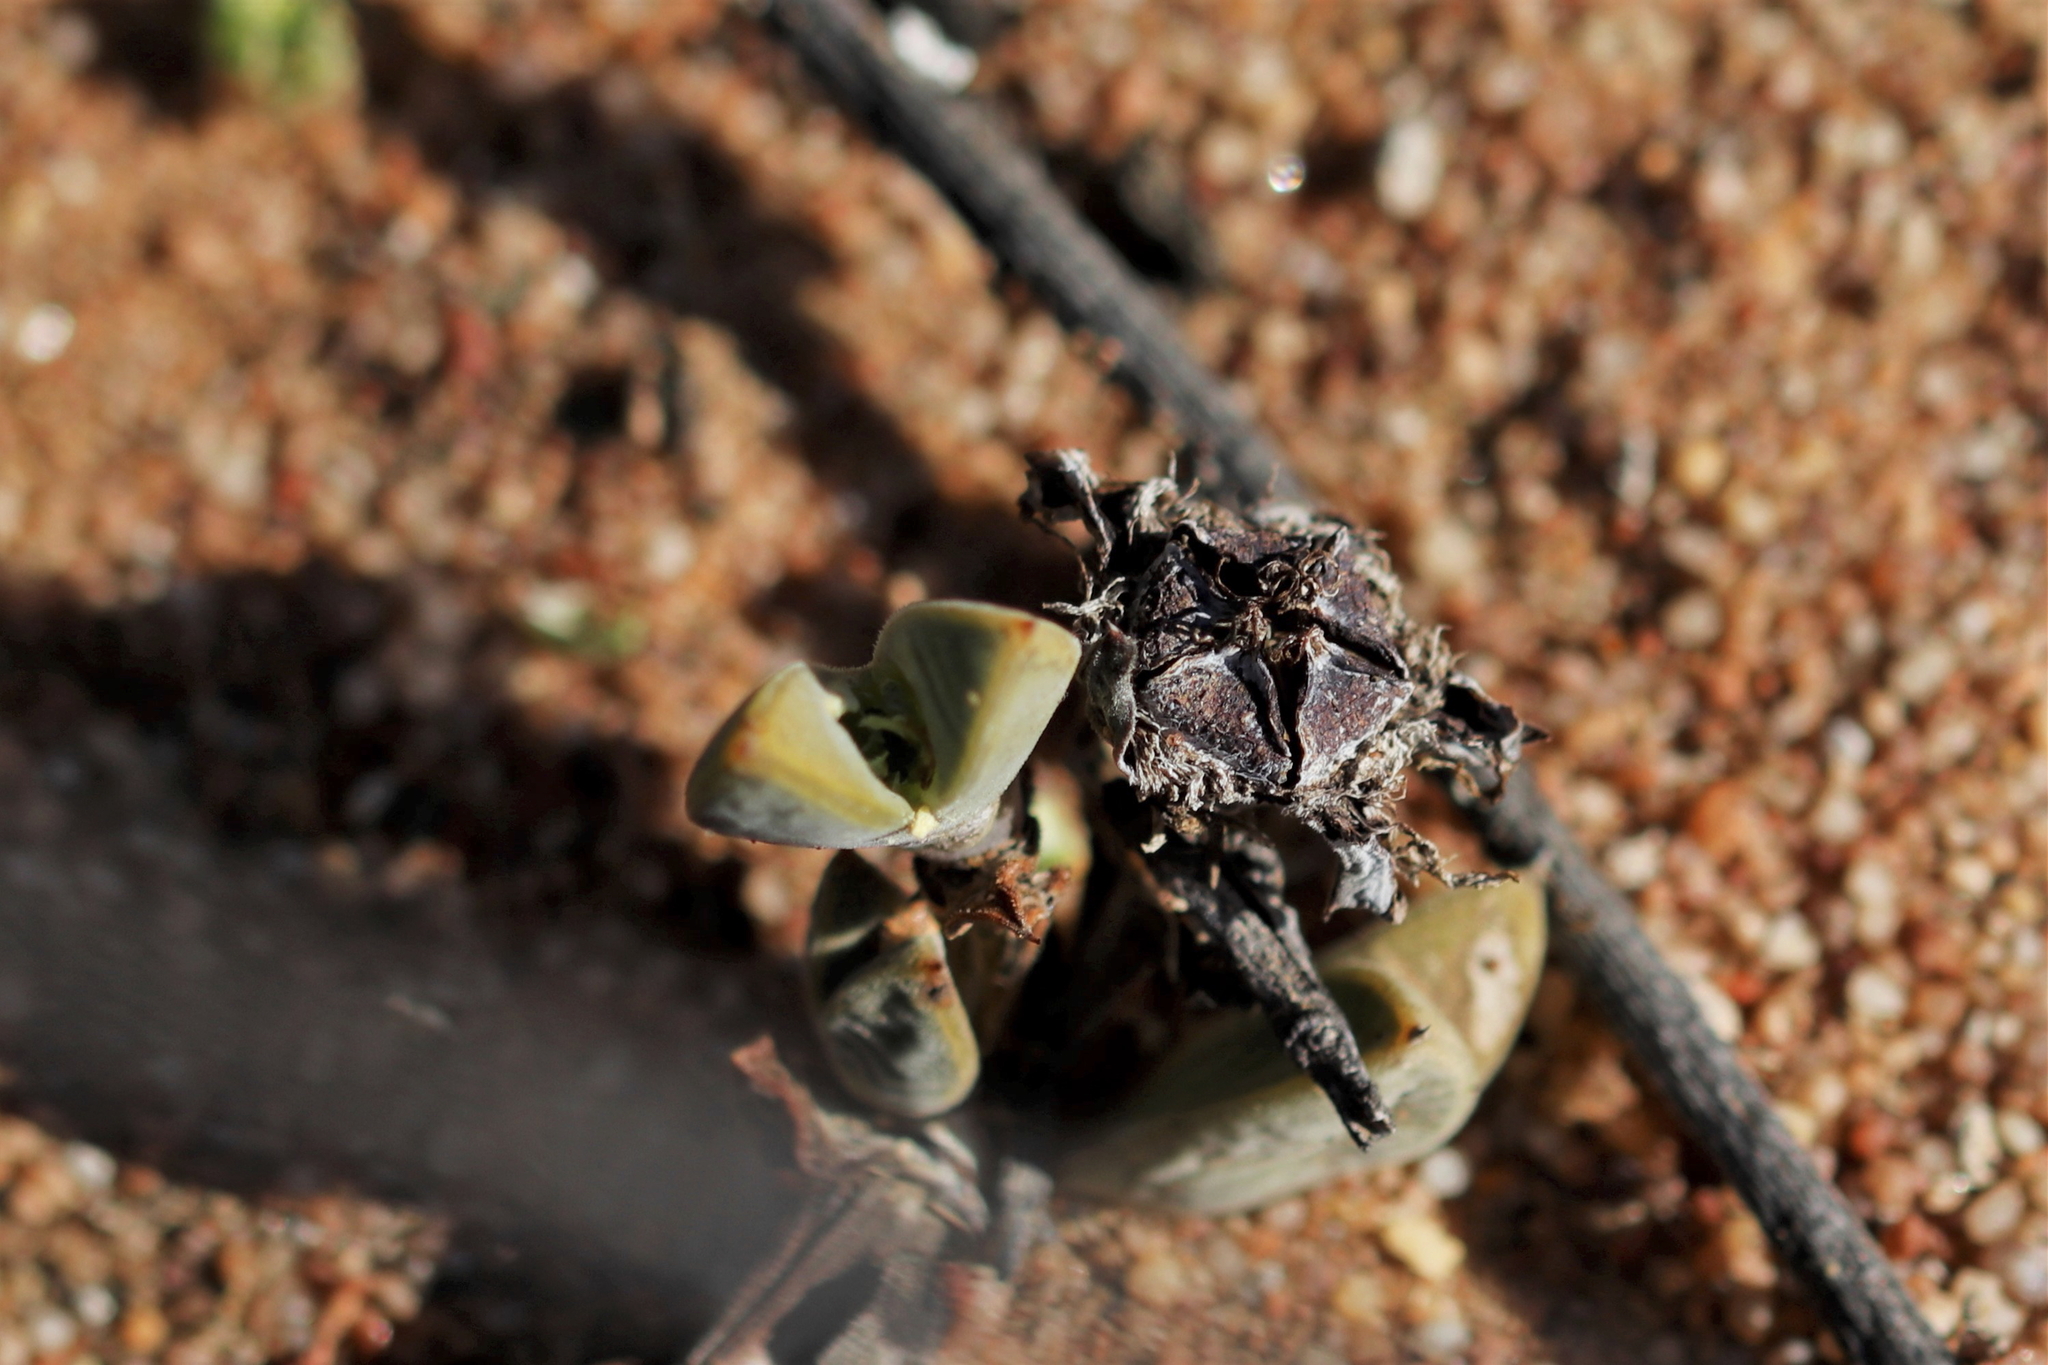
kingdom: Plantae
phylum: Tracheophyta
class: Magnoliopsida
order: Caryophyllales
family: Aizoaceae
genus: Braunsia
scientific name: Braunsia apiculata
